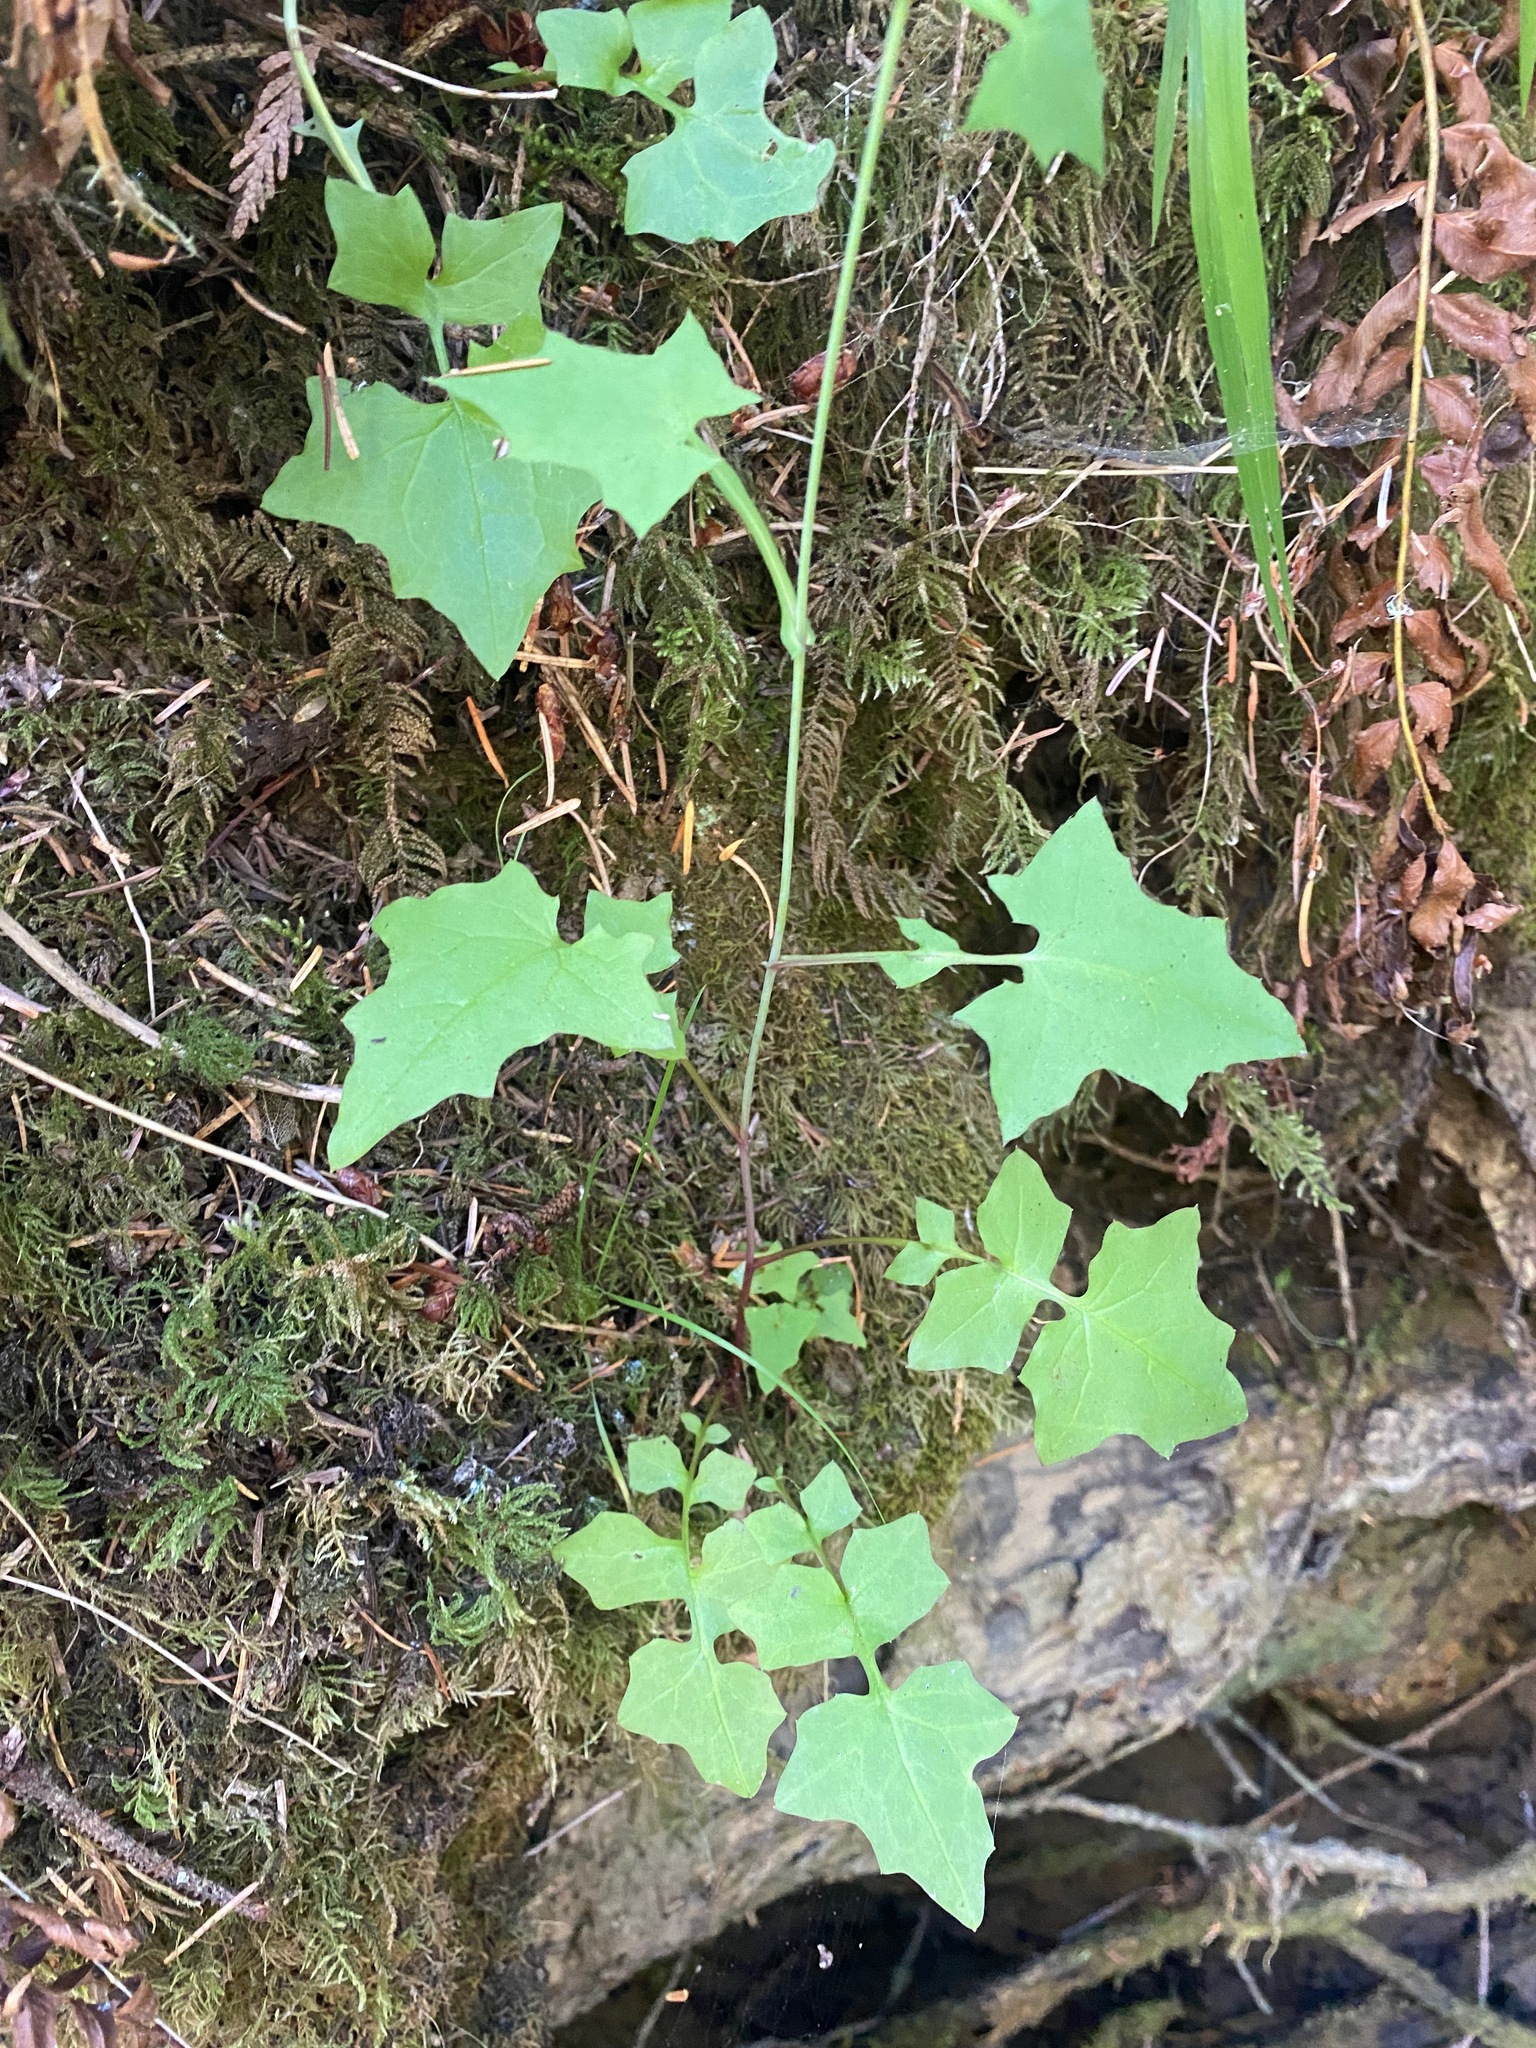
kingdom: Plantae
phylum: Tracheophyta
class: Magnoliopsida
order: Asterales
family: Asteraceae
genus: Mycelis
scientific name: Mycelis muralis
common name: Wall lettuce
